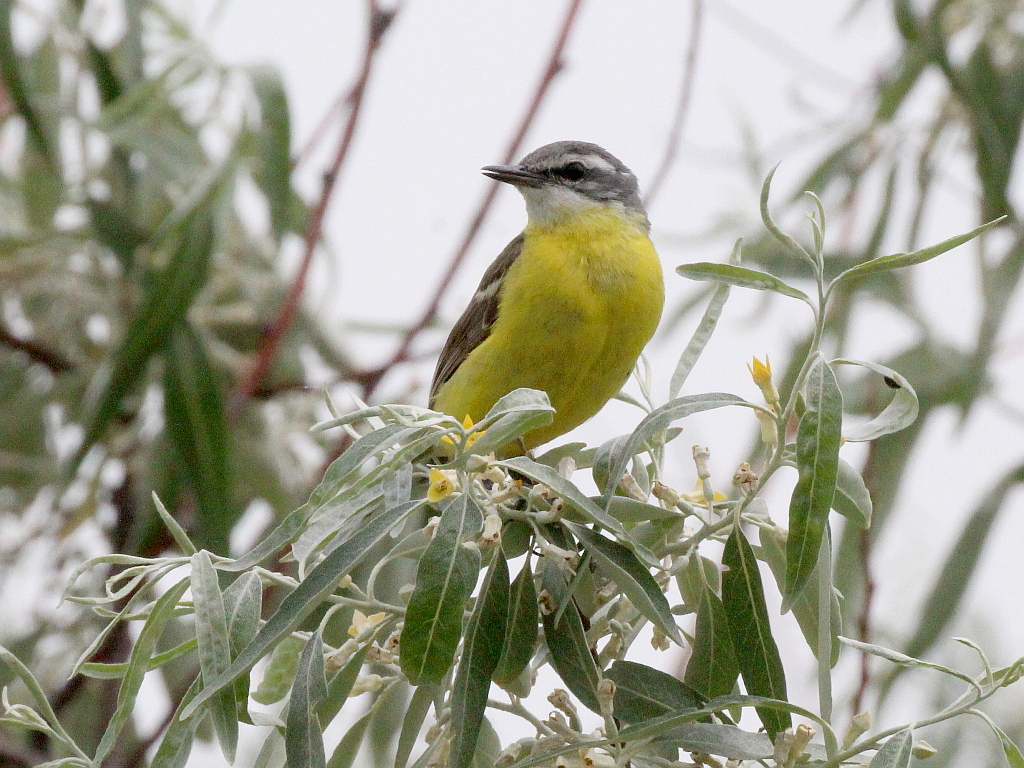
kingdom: Animalia
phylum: Chordata
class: Aves
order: Passeriformes
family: Motacillidae
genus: Motacilla
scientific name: Motacilla flava
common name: Western yellow wagtail
